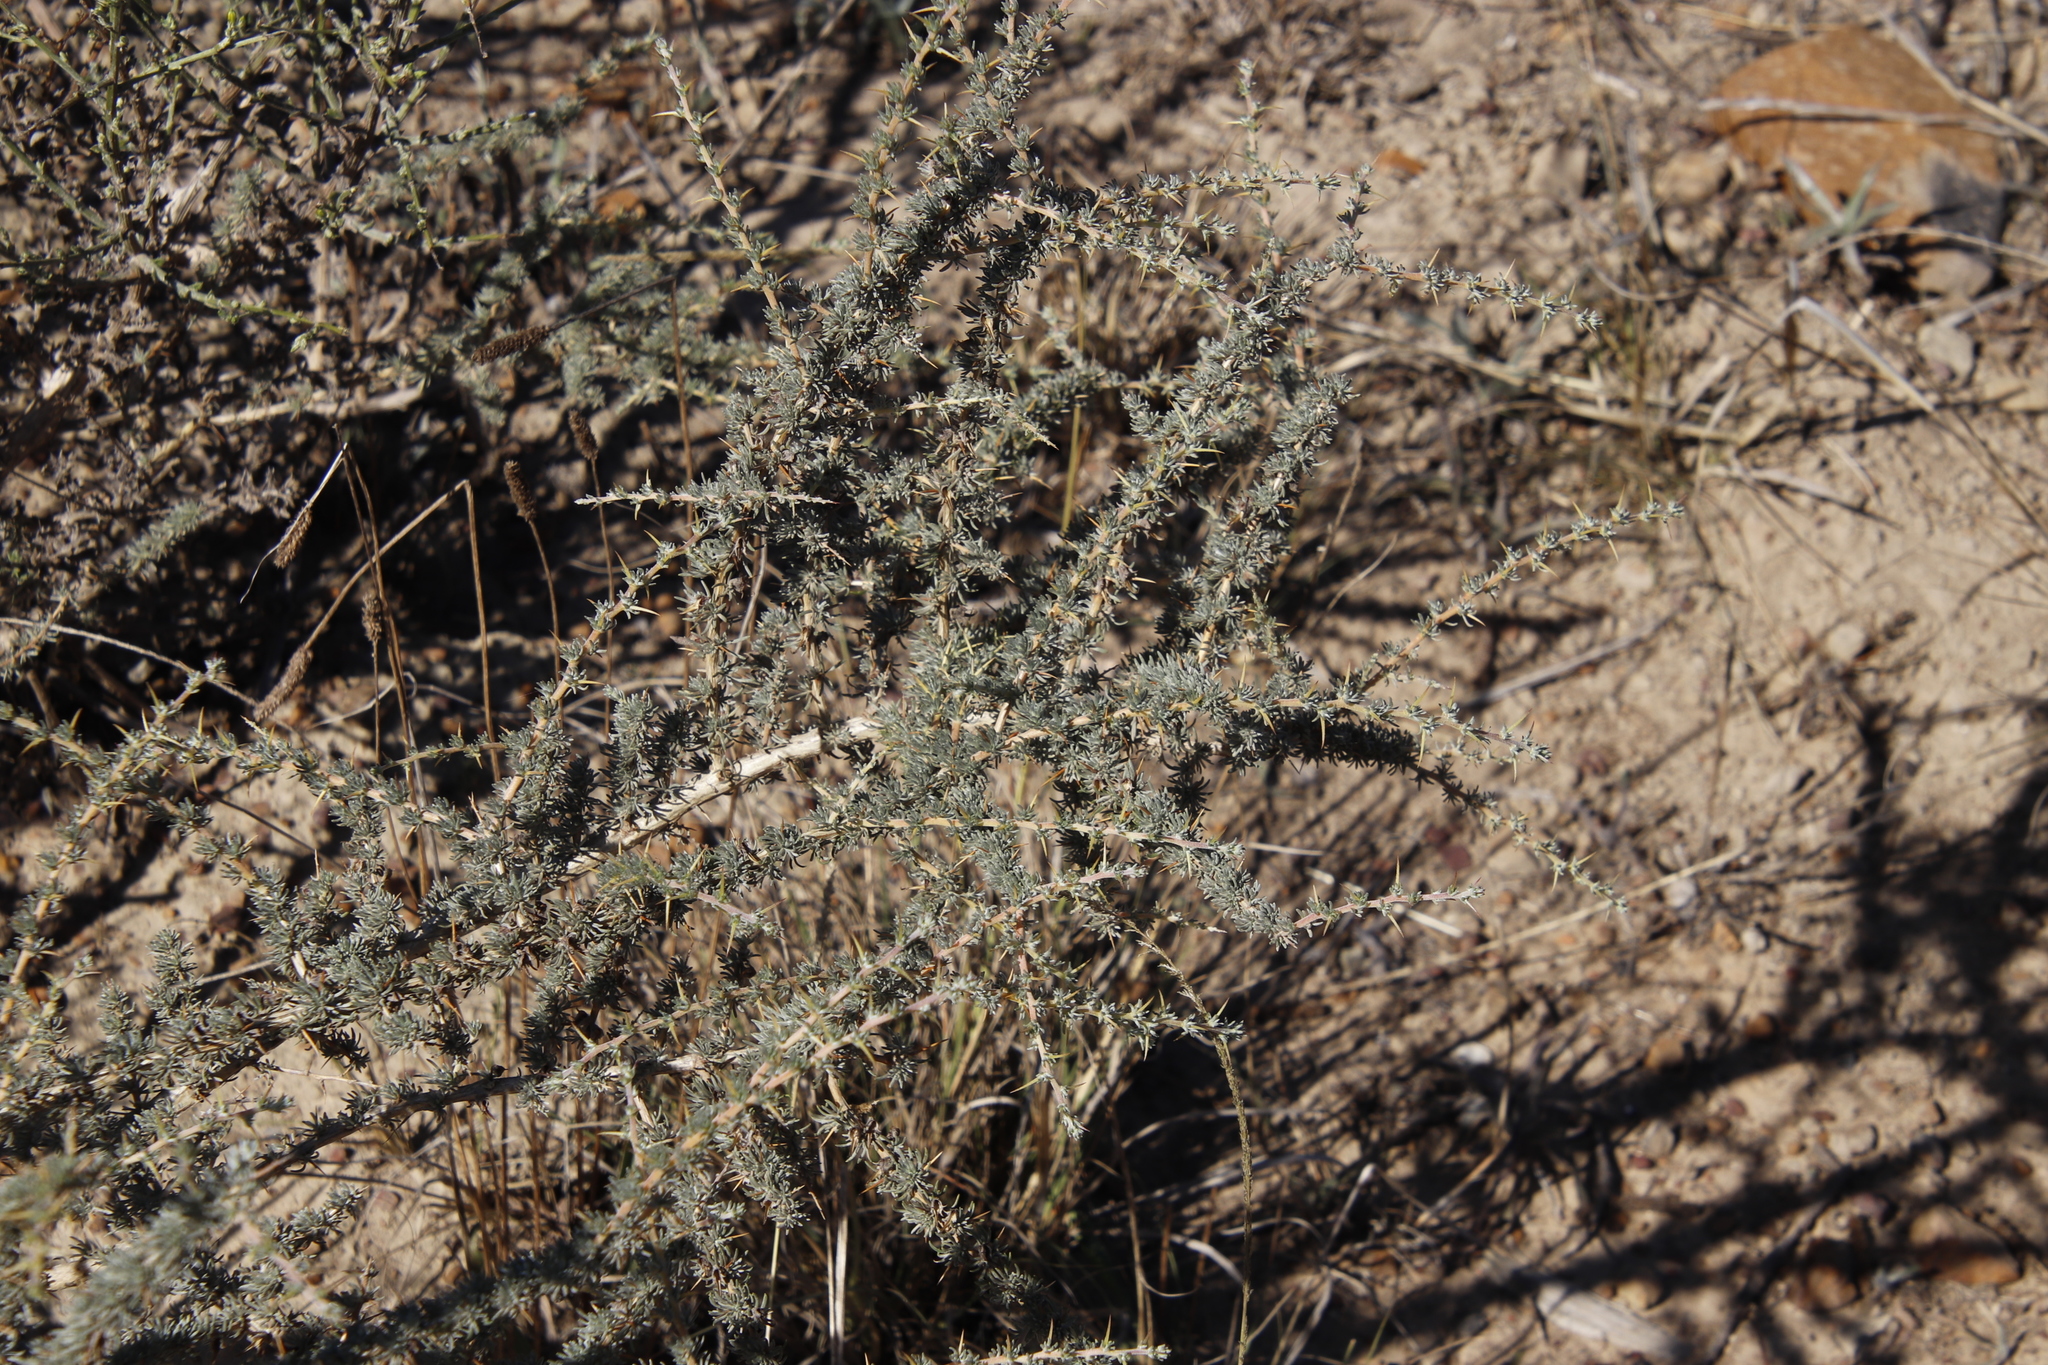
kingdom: Plantae
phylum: Tracheophyta
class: Magnoliopsida
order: Fabales
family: Fabaceae
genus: Aspalathus
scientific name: Aspalathus acanthophylla
